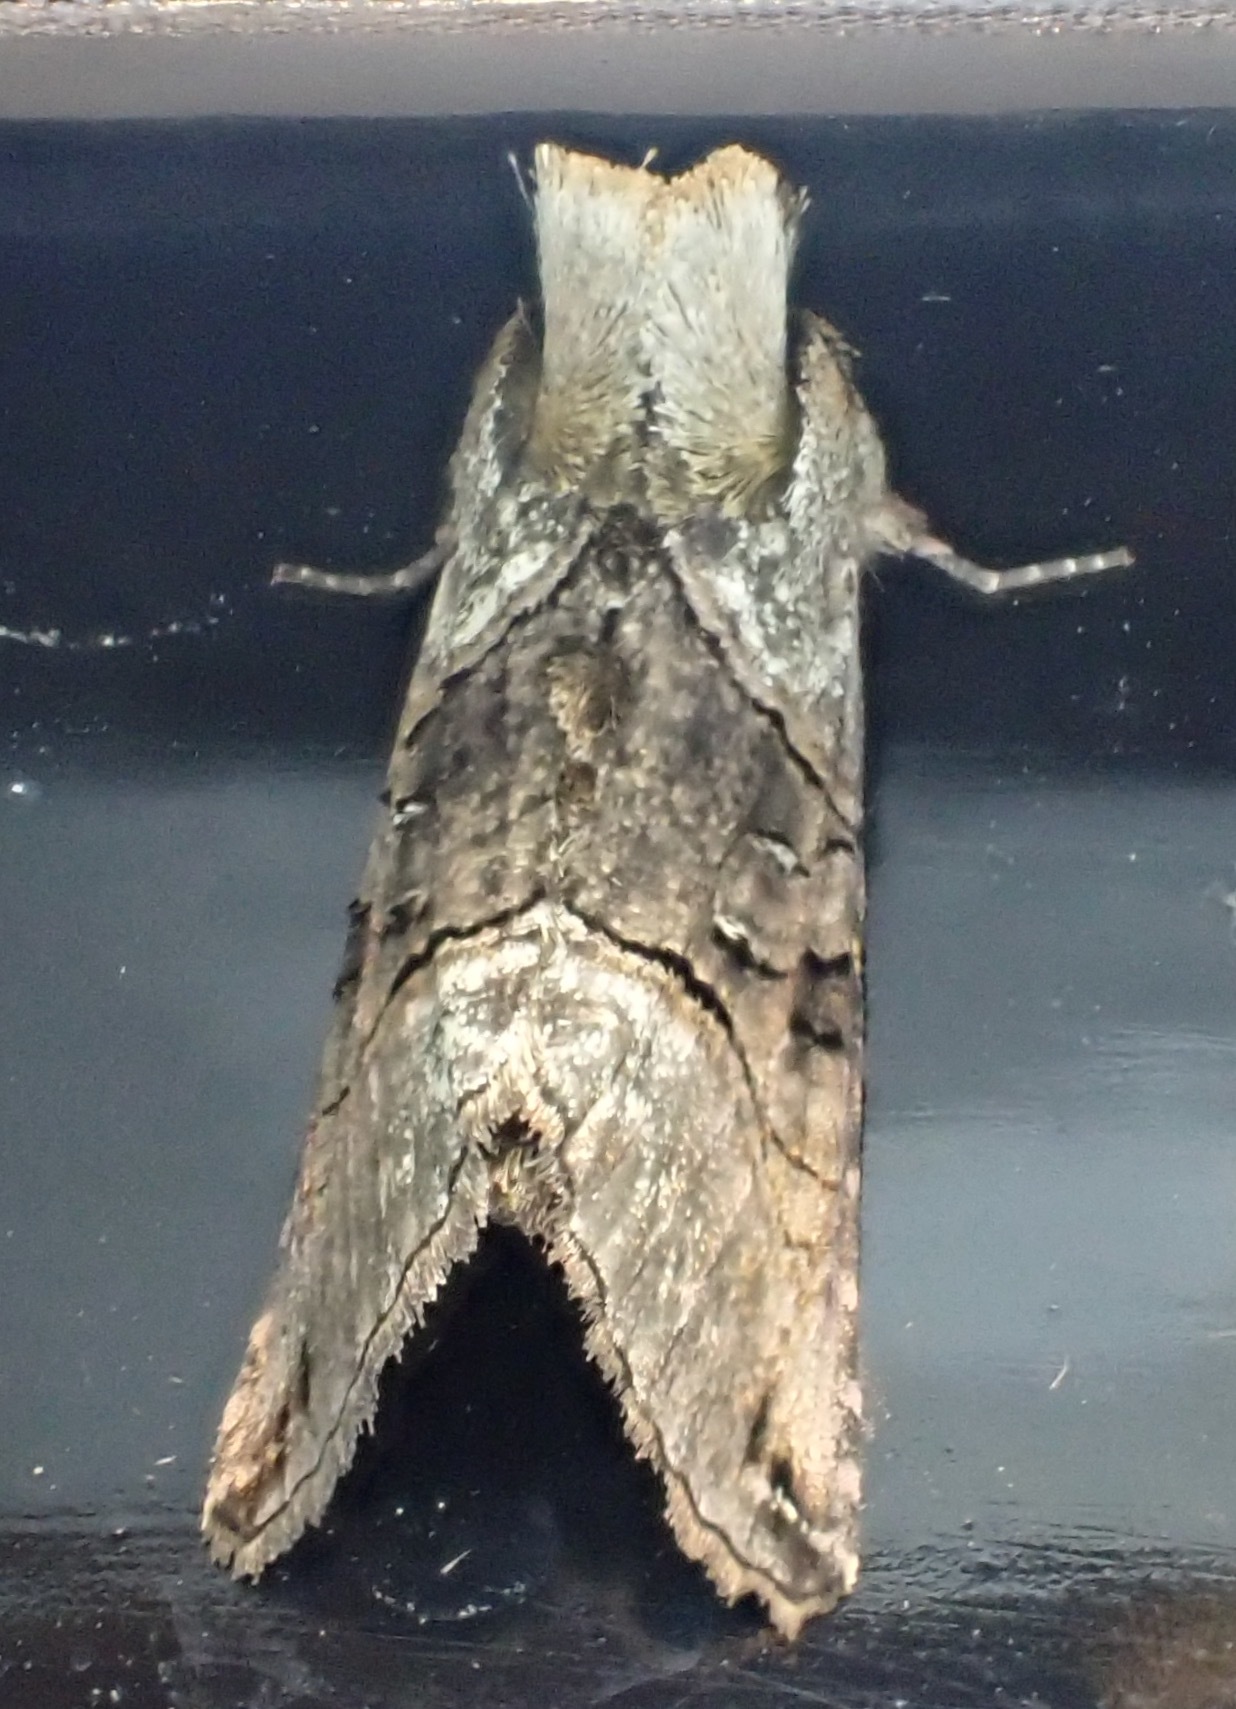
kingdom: Animalia
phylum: Arthropoda
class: Insecta
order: Lepidoptera
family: Noctuidae
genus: Abrostola
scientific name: Abrostola tripartita
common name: Spectacle
